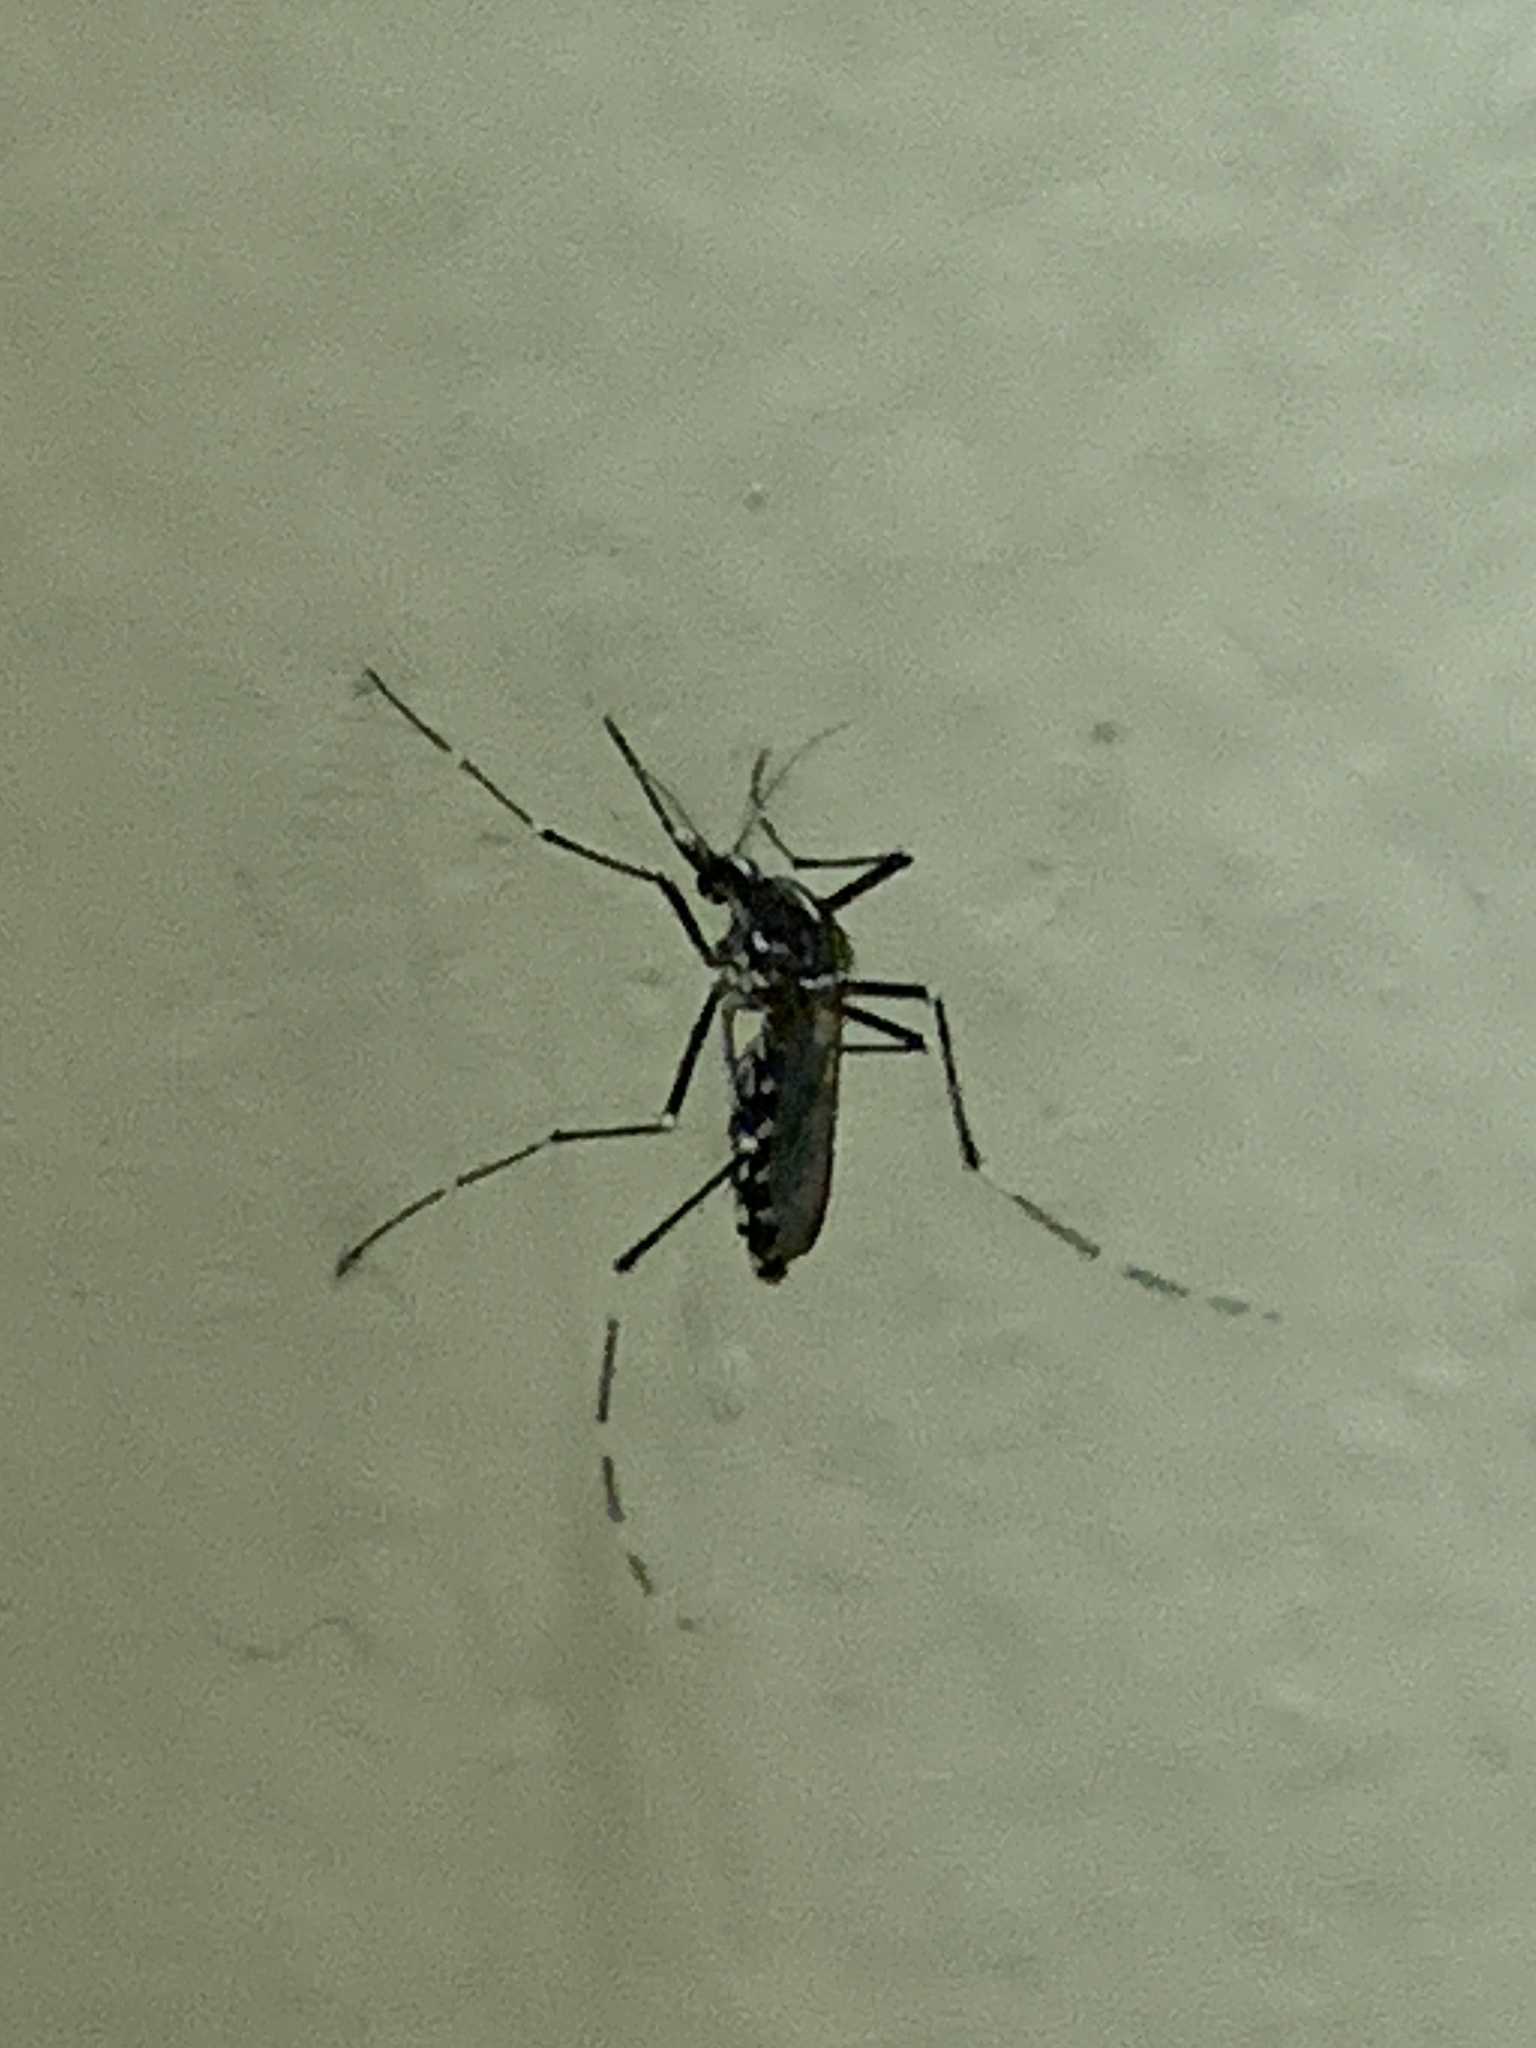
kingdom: Animalia
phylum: Arthropoda
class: Insecta
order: Diptera
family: Culicidae
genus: Aedes
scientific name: Aedes albopictus
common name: Tiger mosquito
